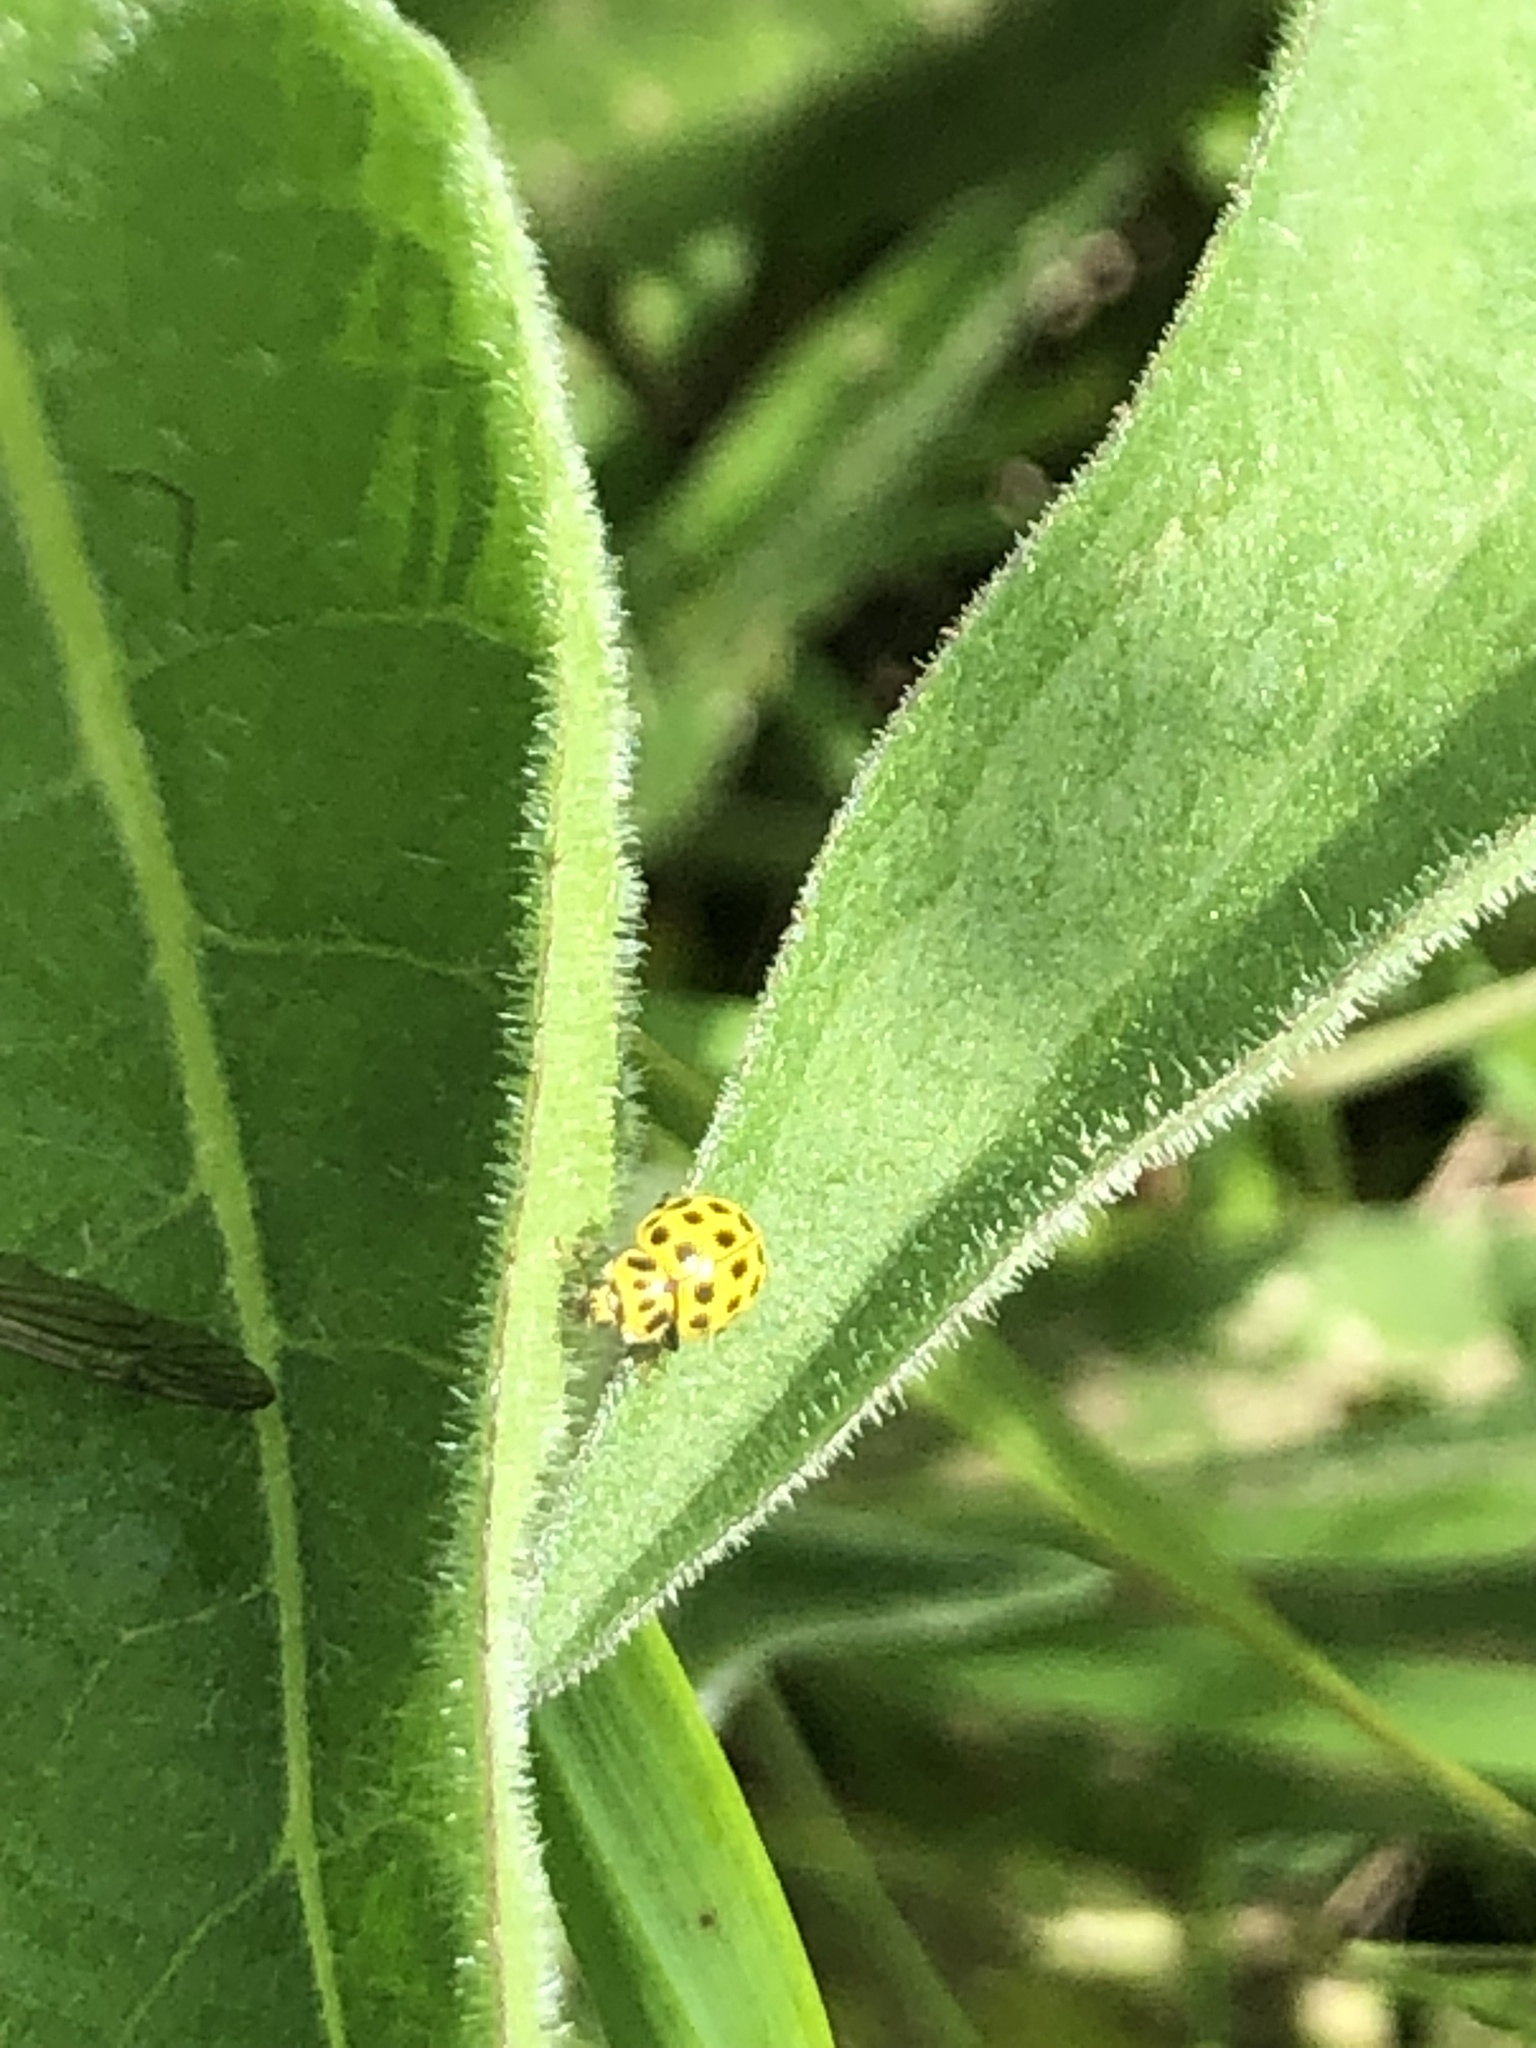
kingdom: Animalia
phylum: Arthropoda
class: Insecta
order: Coleoptera
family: Coccinellidae
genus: Psyllobora
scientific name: Psyllobora vigintiduopunctata
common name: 22-spot ladybird
